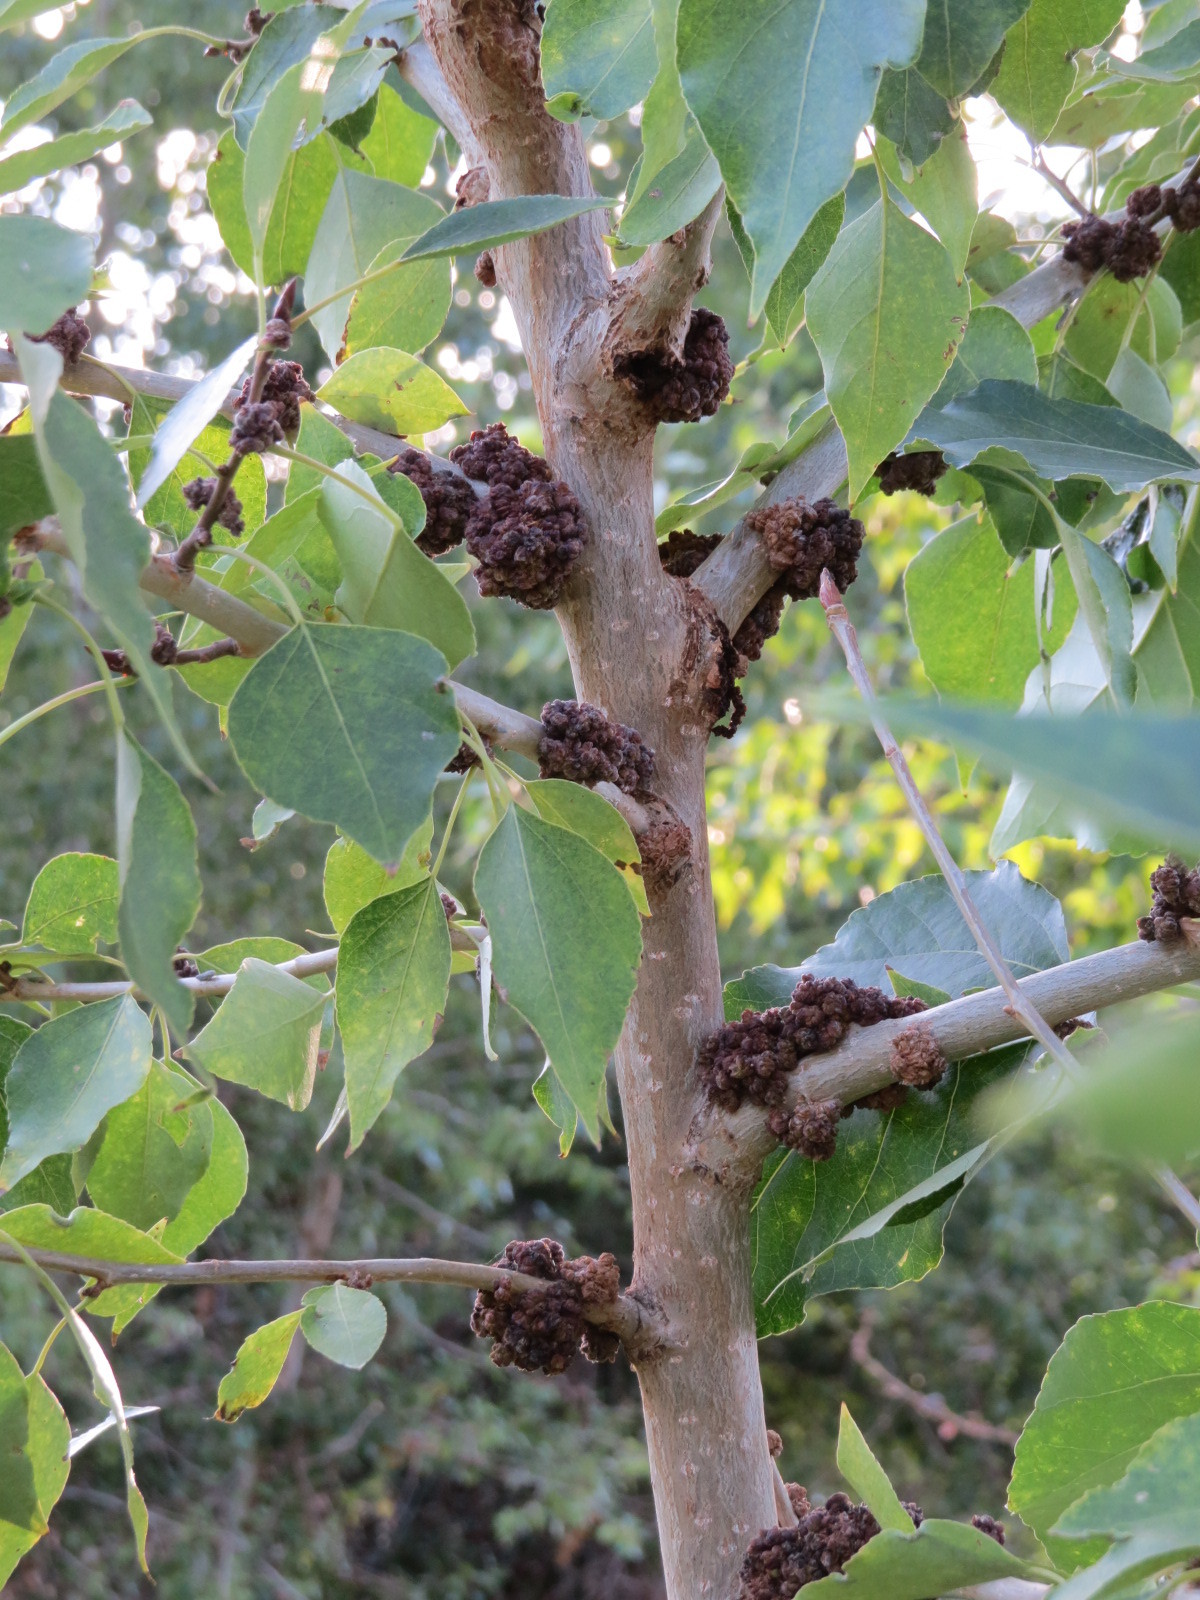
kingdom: Animalia
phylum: Arthropoda
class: Arachnida
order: Trombidiformes
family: Eriophyidae
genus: Aceria
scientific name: Aceria
